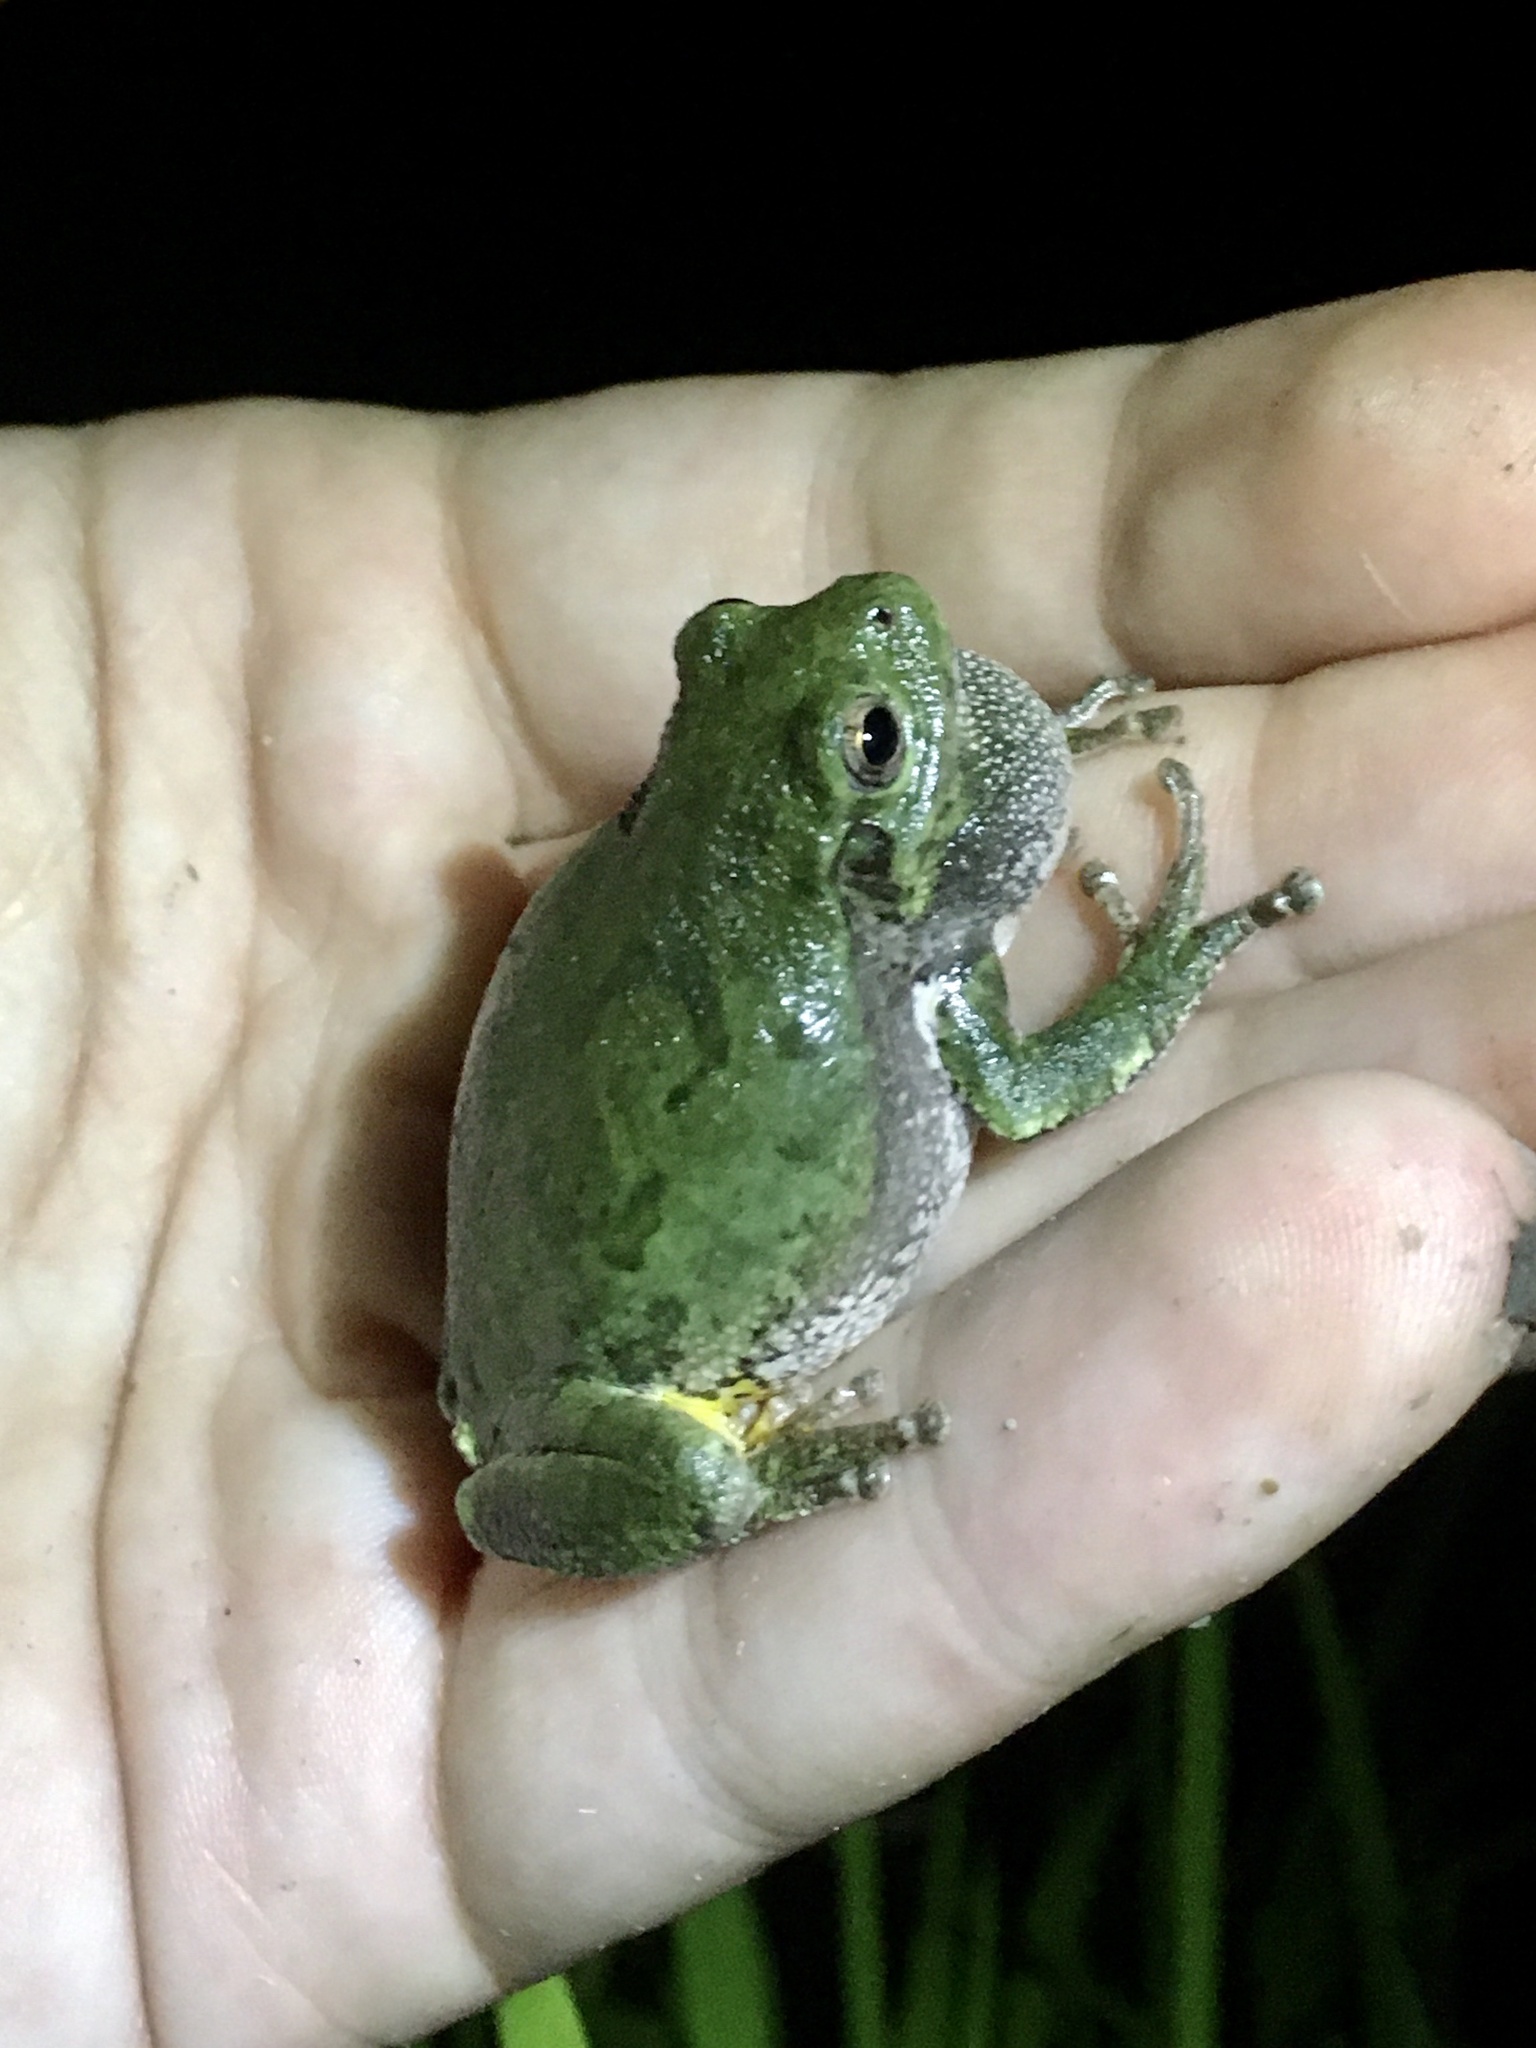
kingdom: Animalia
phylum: Chordata
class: Amphibia
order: Anura
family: Hylidae
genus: Dryophytes
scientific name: Dryophytes chrysoscelis
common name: Cope's gray treefrog
